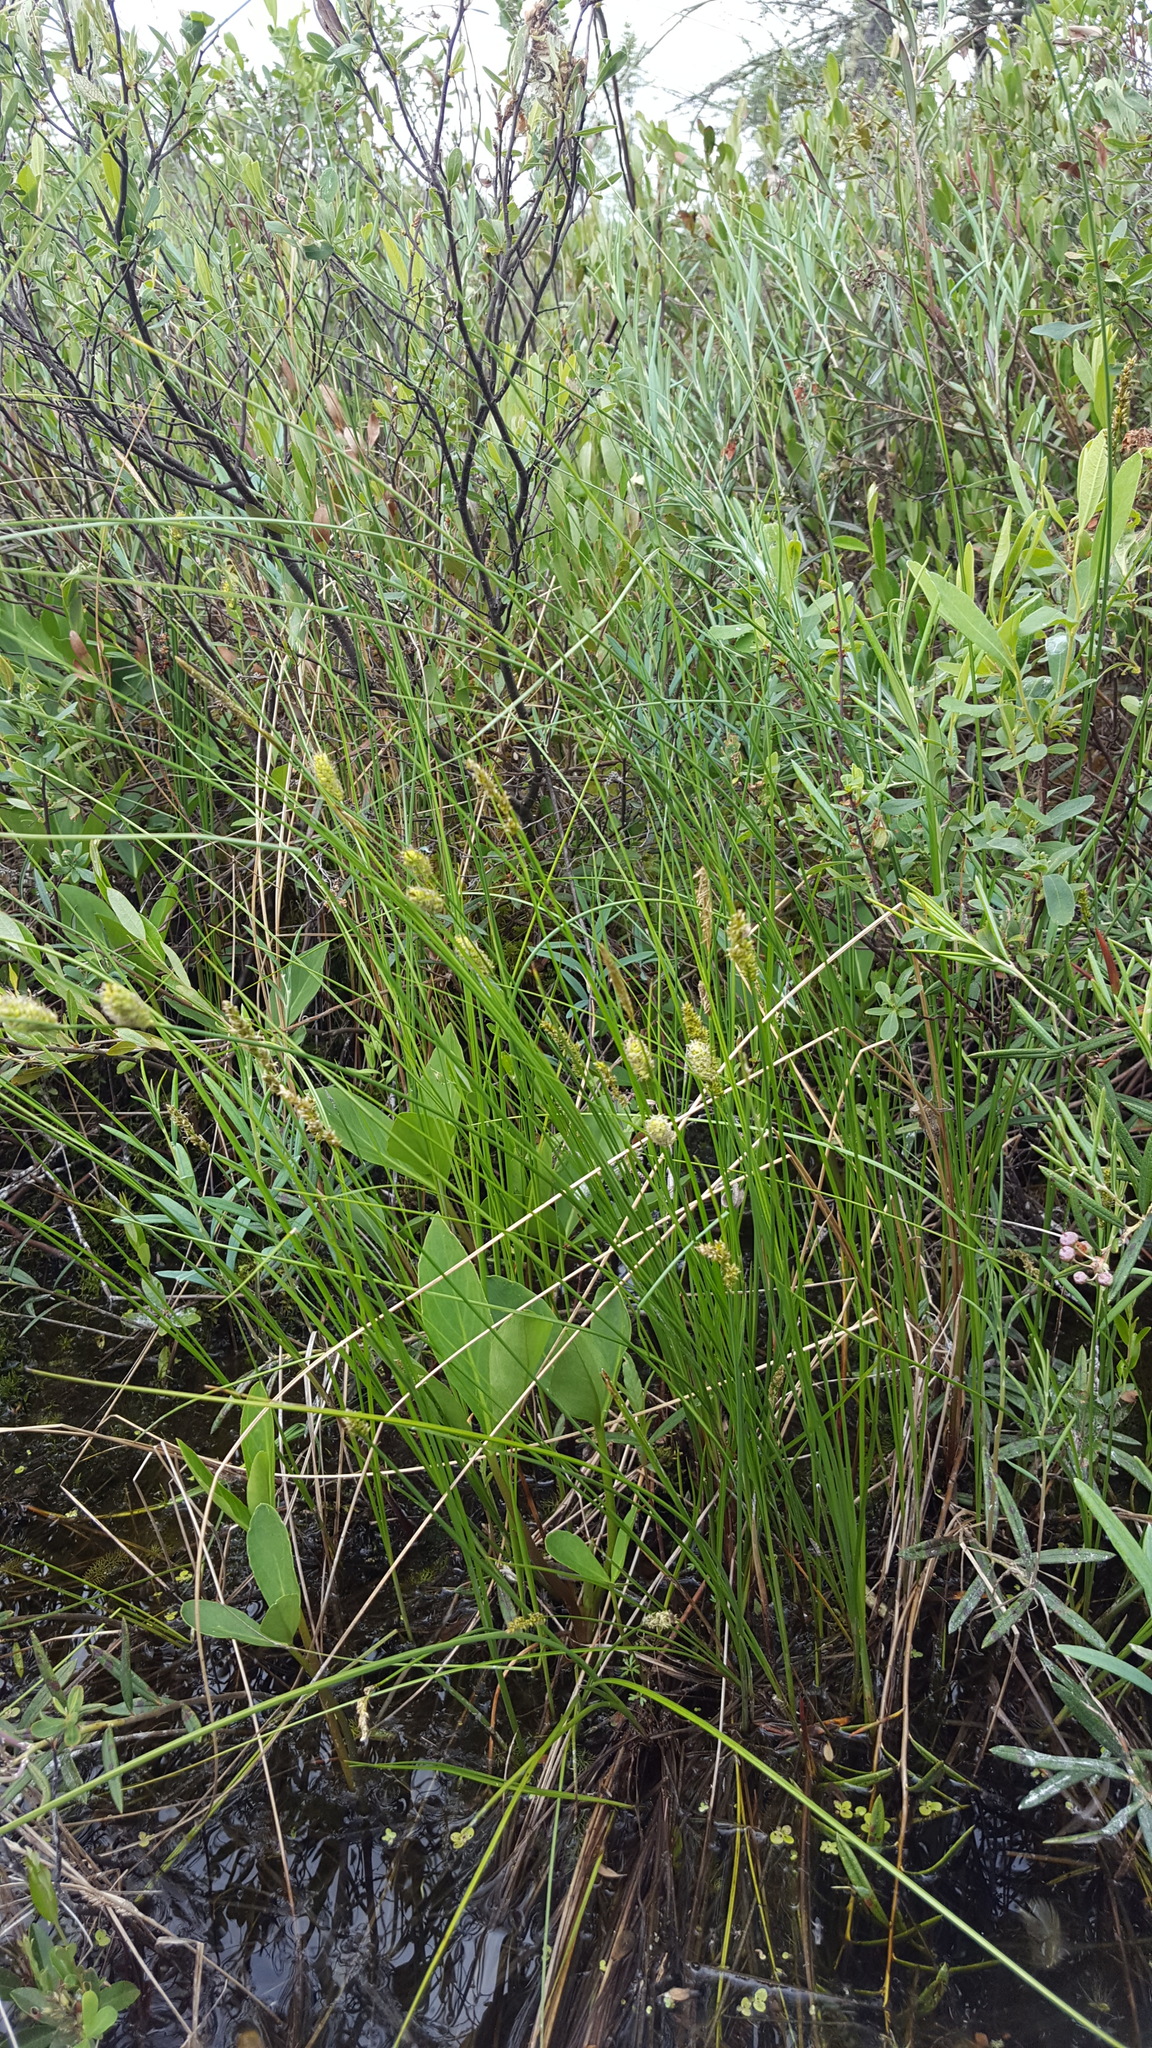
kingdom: Plantae
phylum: Tracheophyta
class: Liliopsida
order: Poales
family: Cyperaceae
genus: Carex
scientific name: Carex lasiocarpa
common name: Slender sedge
